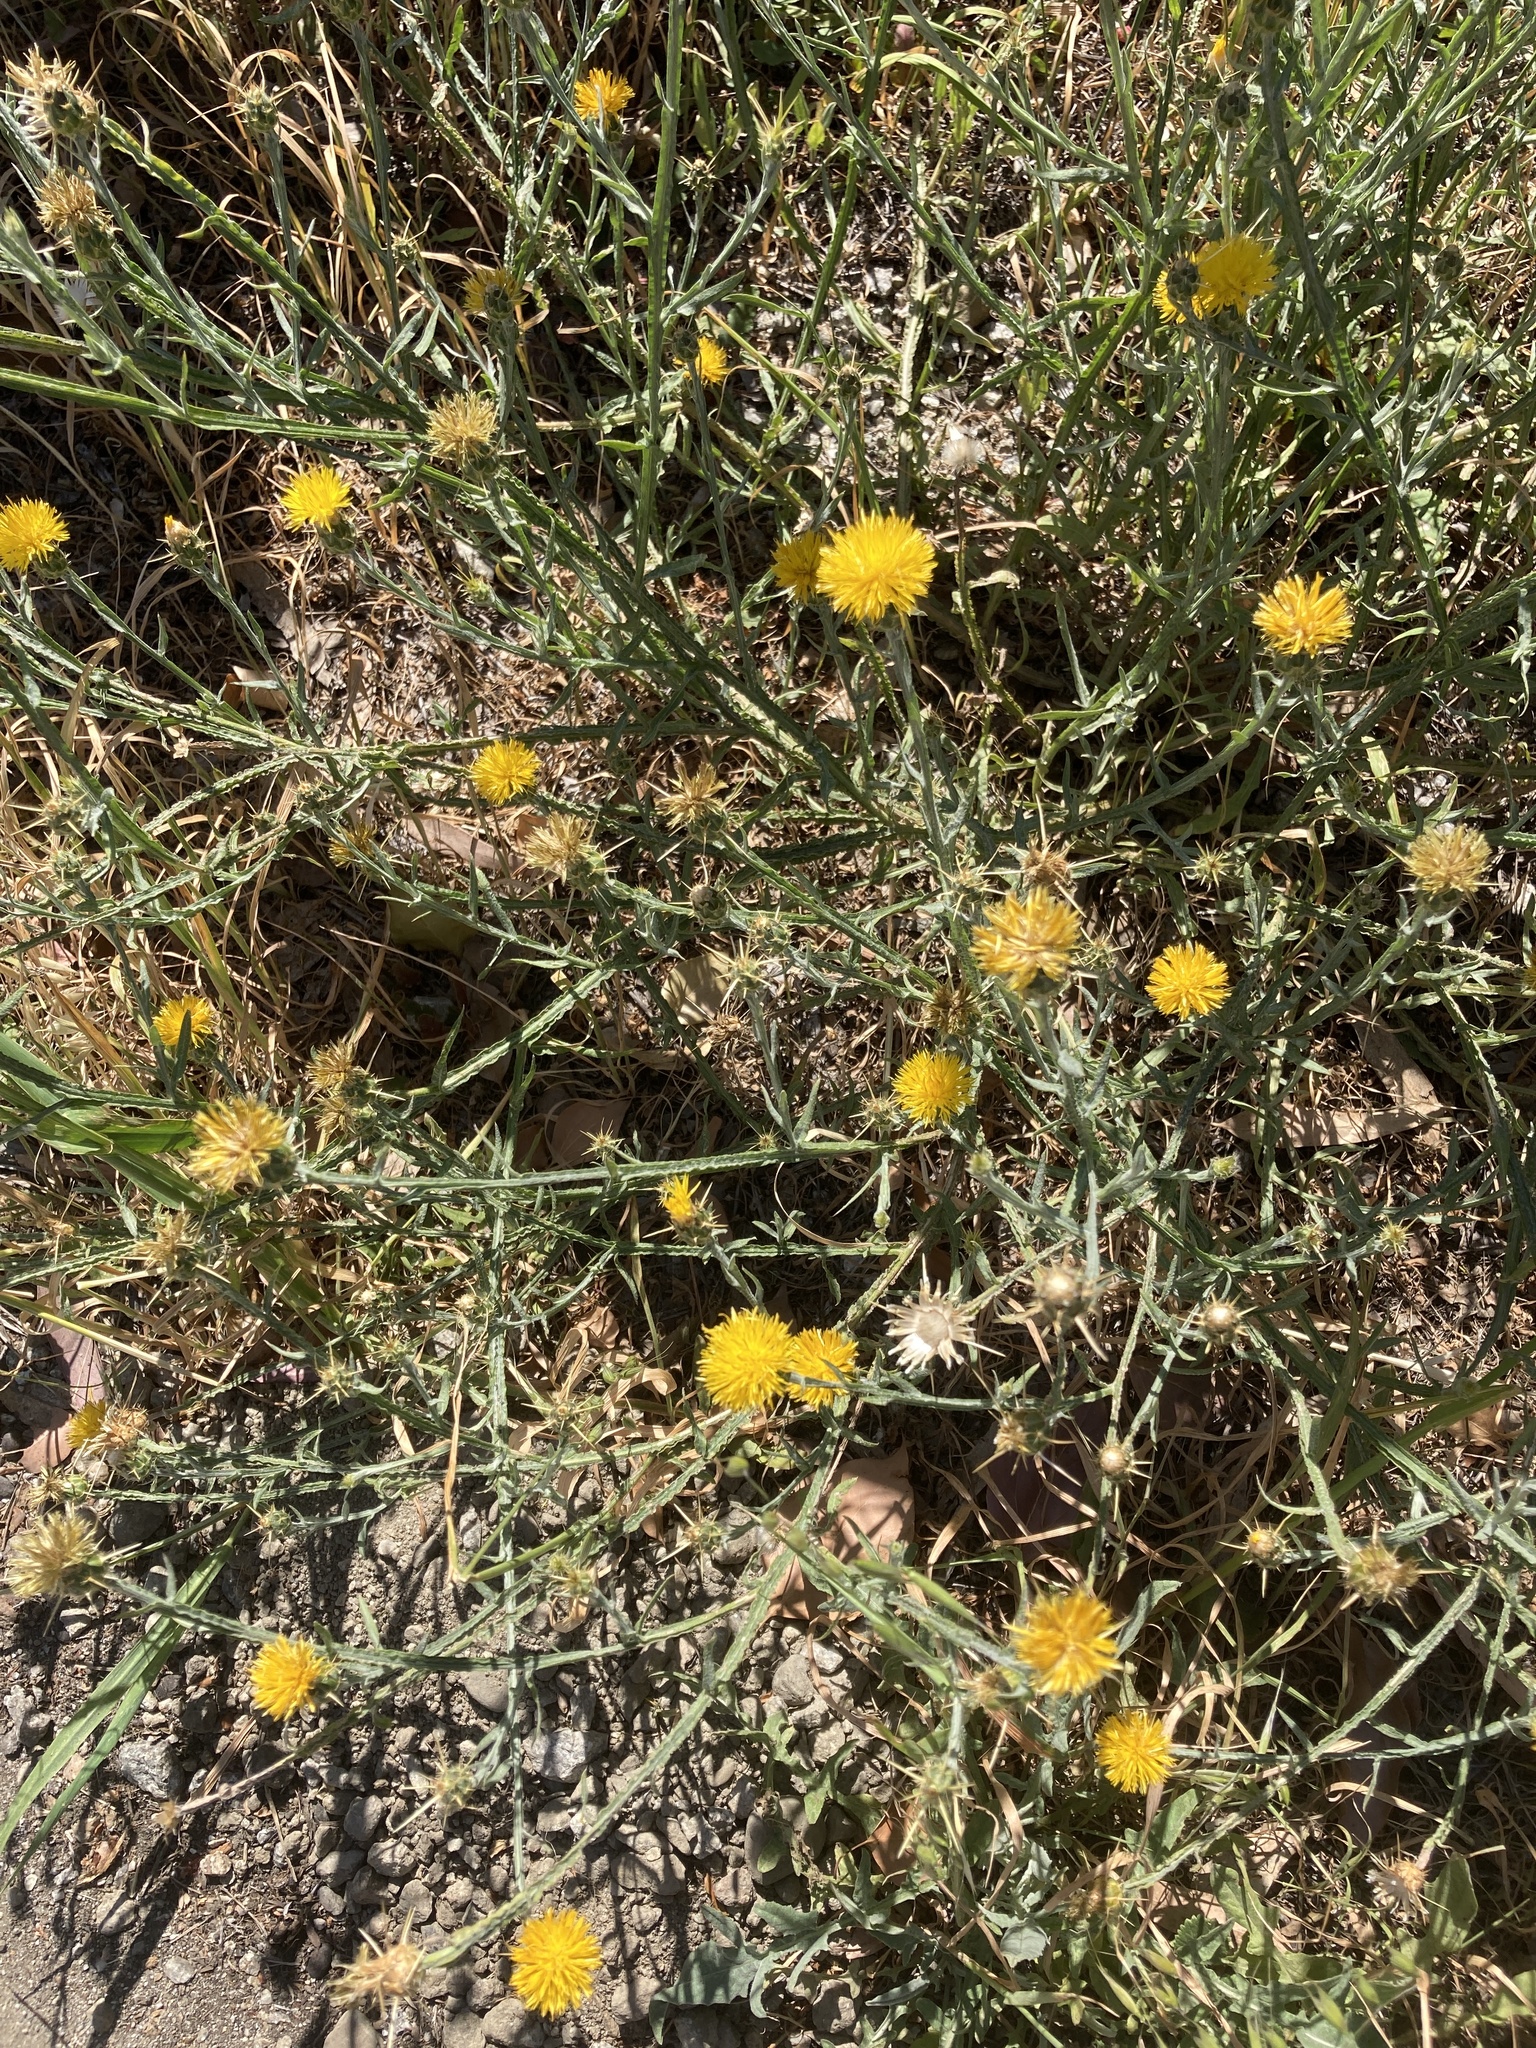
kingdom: Plantae
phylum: Tracheophyta
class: Magnoliopsida
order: Asterales
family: Asteraceae
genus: Centaurea
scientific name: Centaurea solstitialis
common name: Yellow star-thistle
